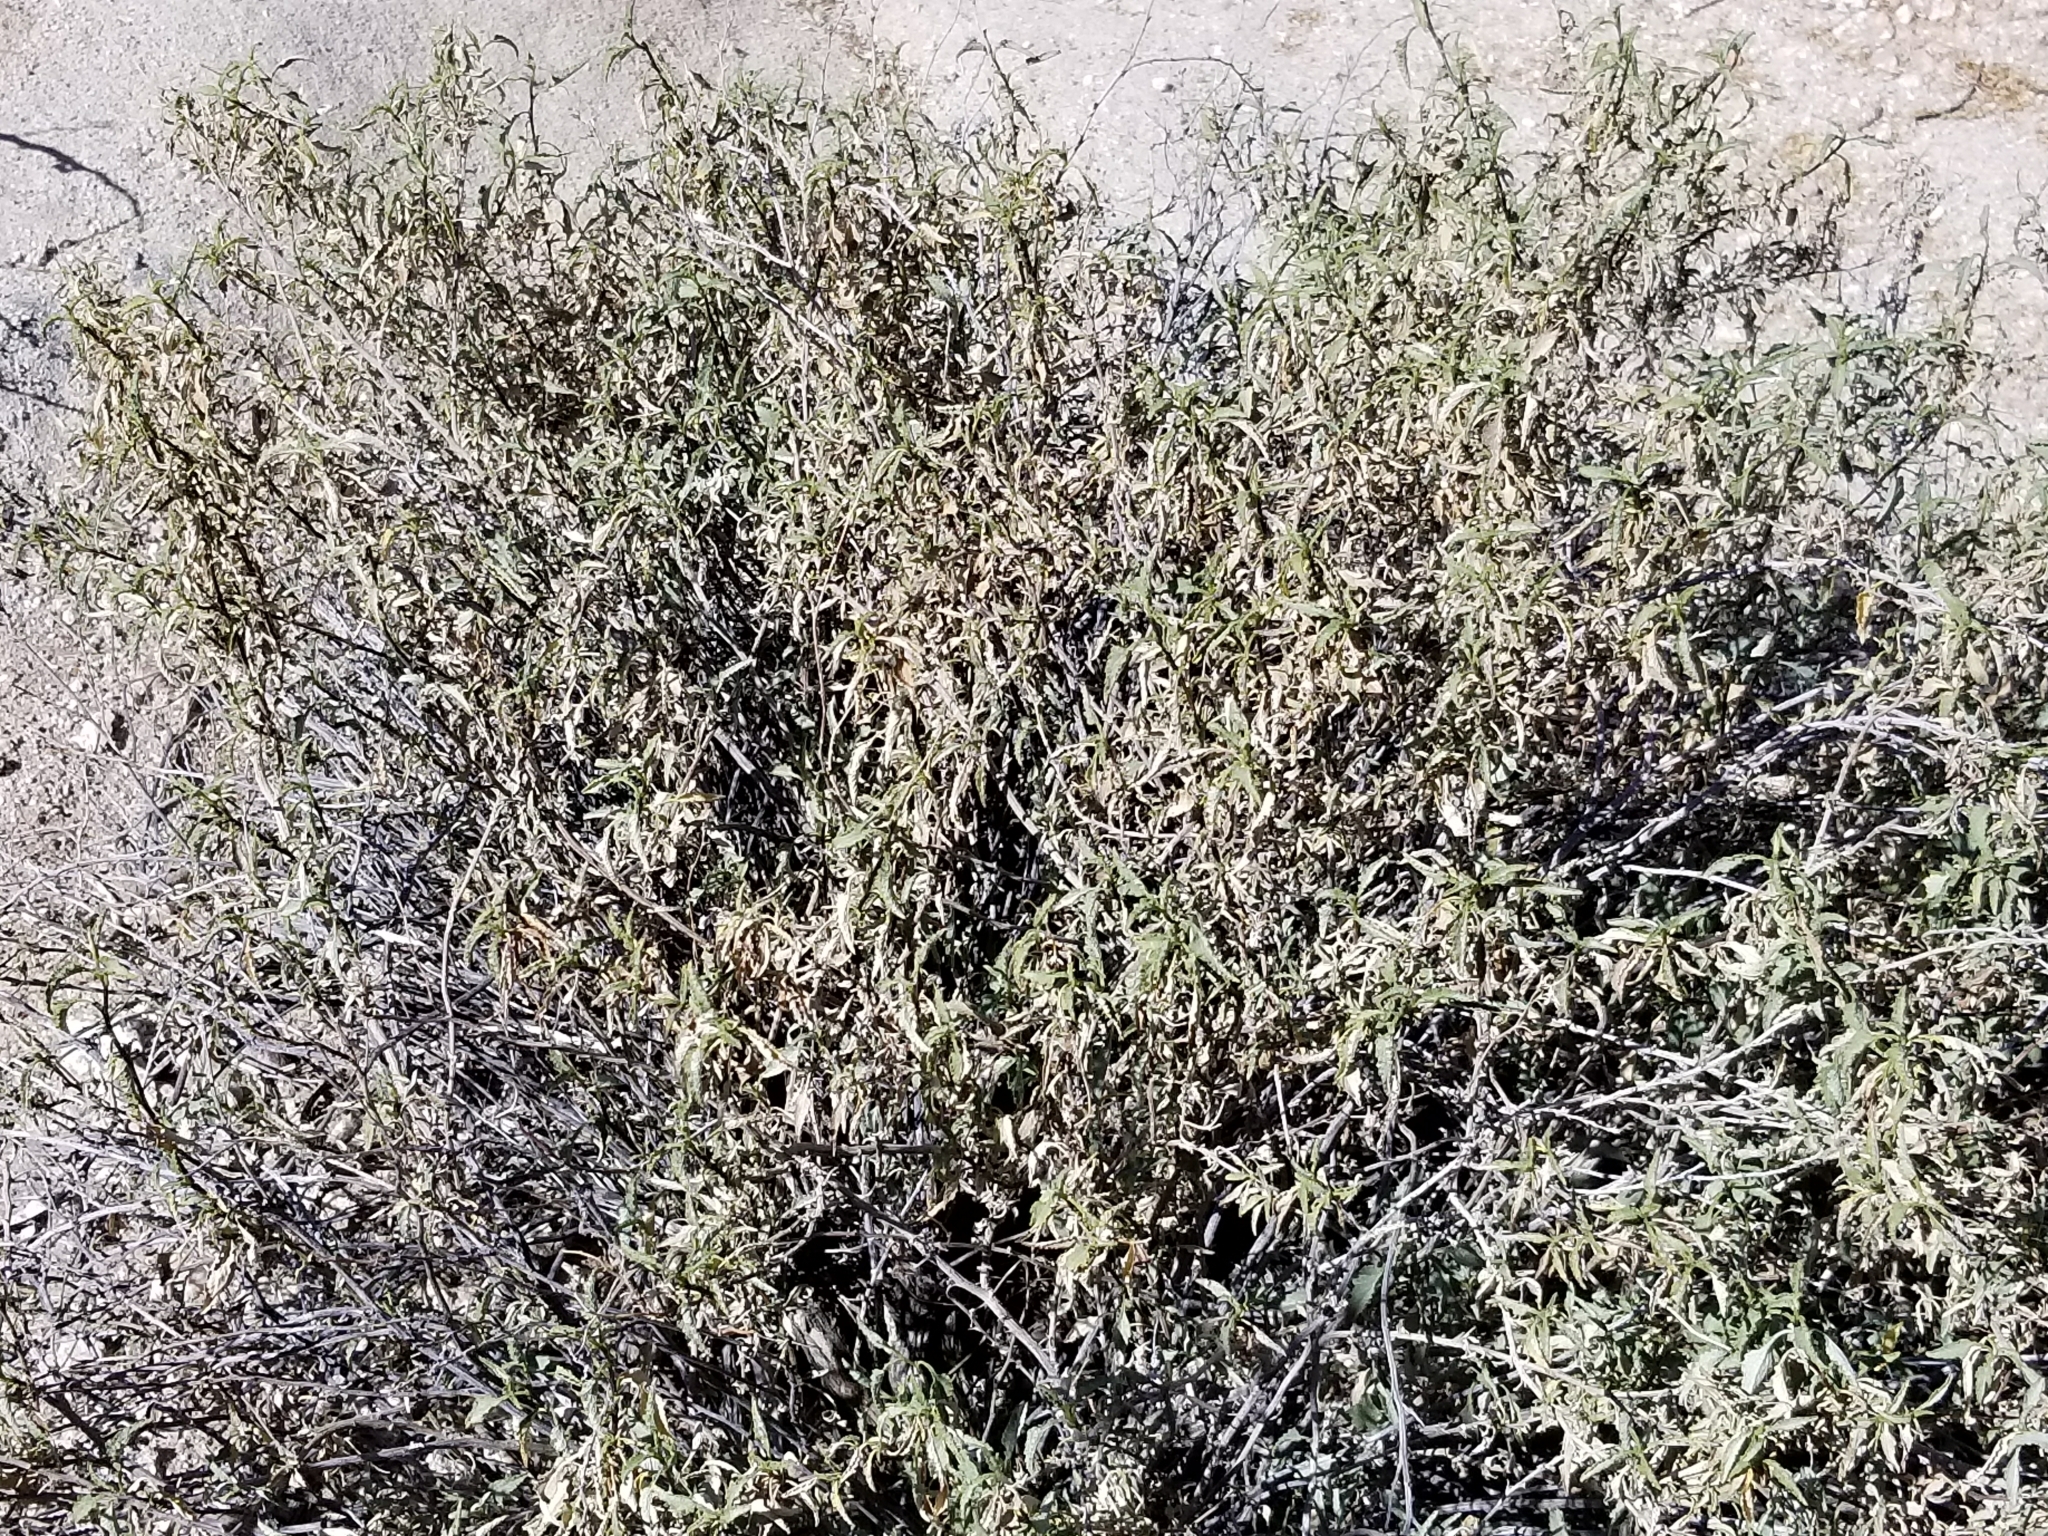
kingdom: Plantae
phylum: Tracheophyta
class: Magnoliopsida
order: Asterales
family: Asteraceae
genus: Ambrosia
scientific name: Ambrosia deltoidea
